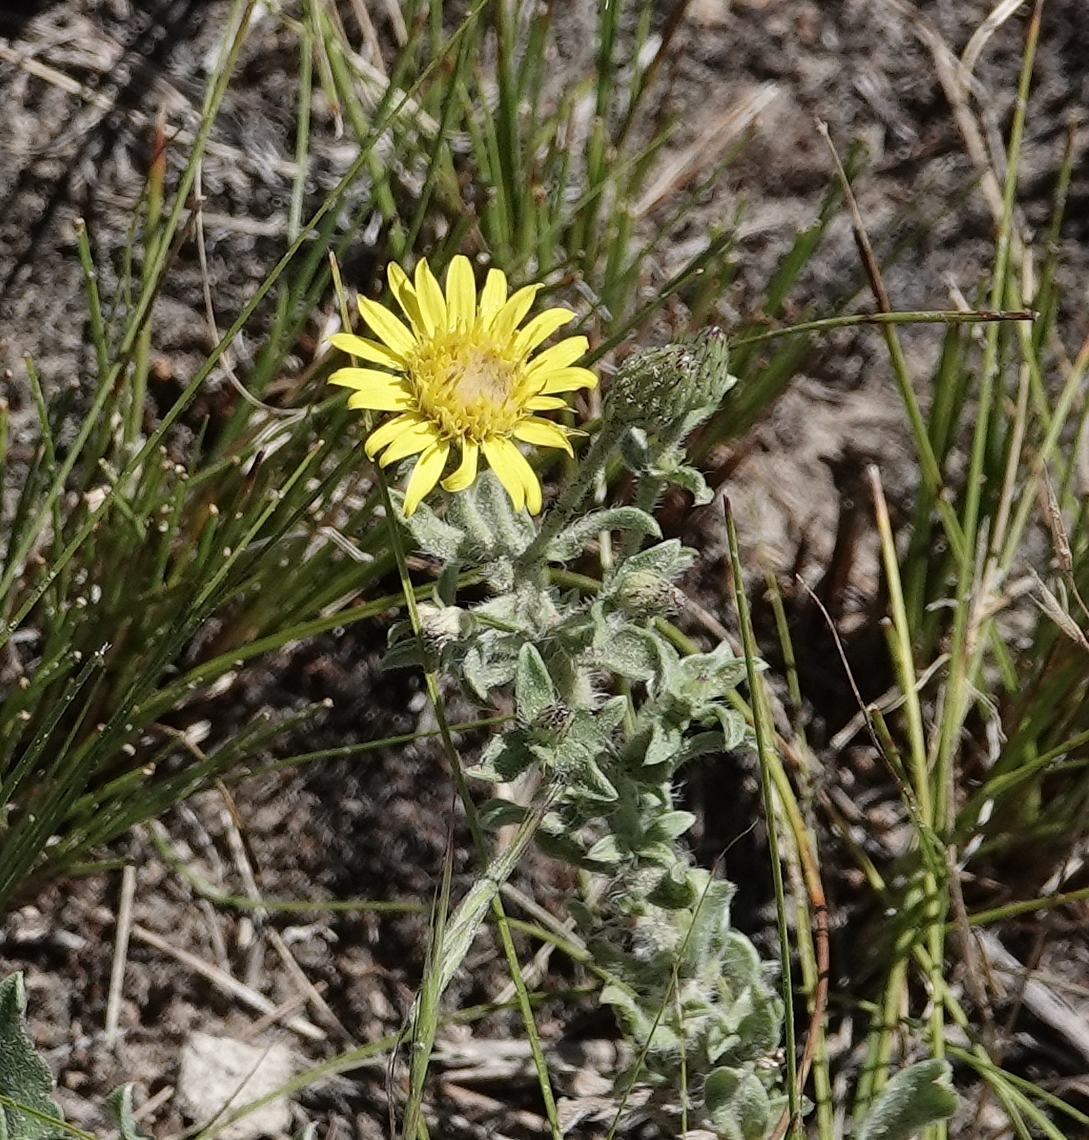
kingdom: Plantae
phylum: Tracheophyta
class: Magnoliopsida
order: Asterales
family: Asteraceae
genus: Heterotheca
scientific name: Heterotheca hirsutissima
